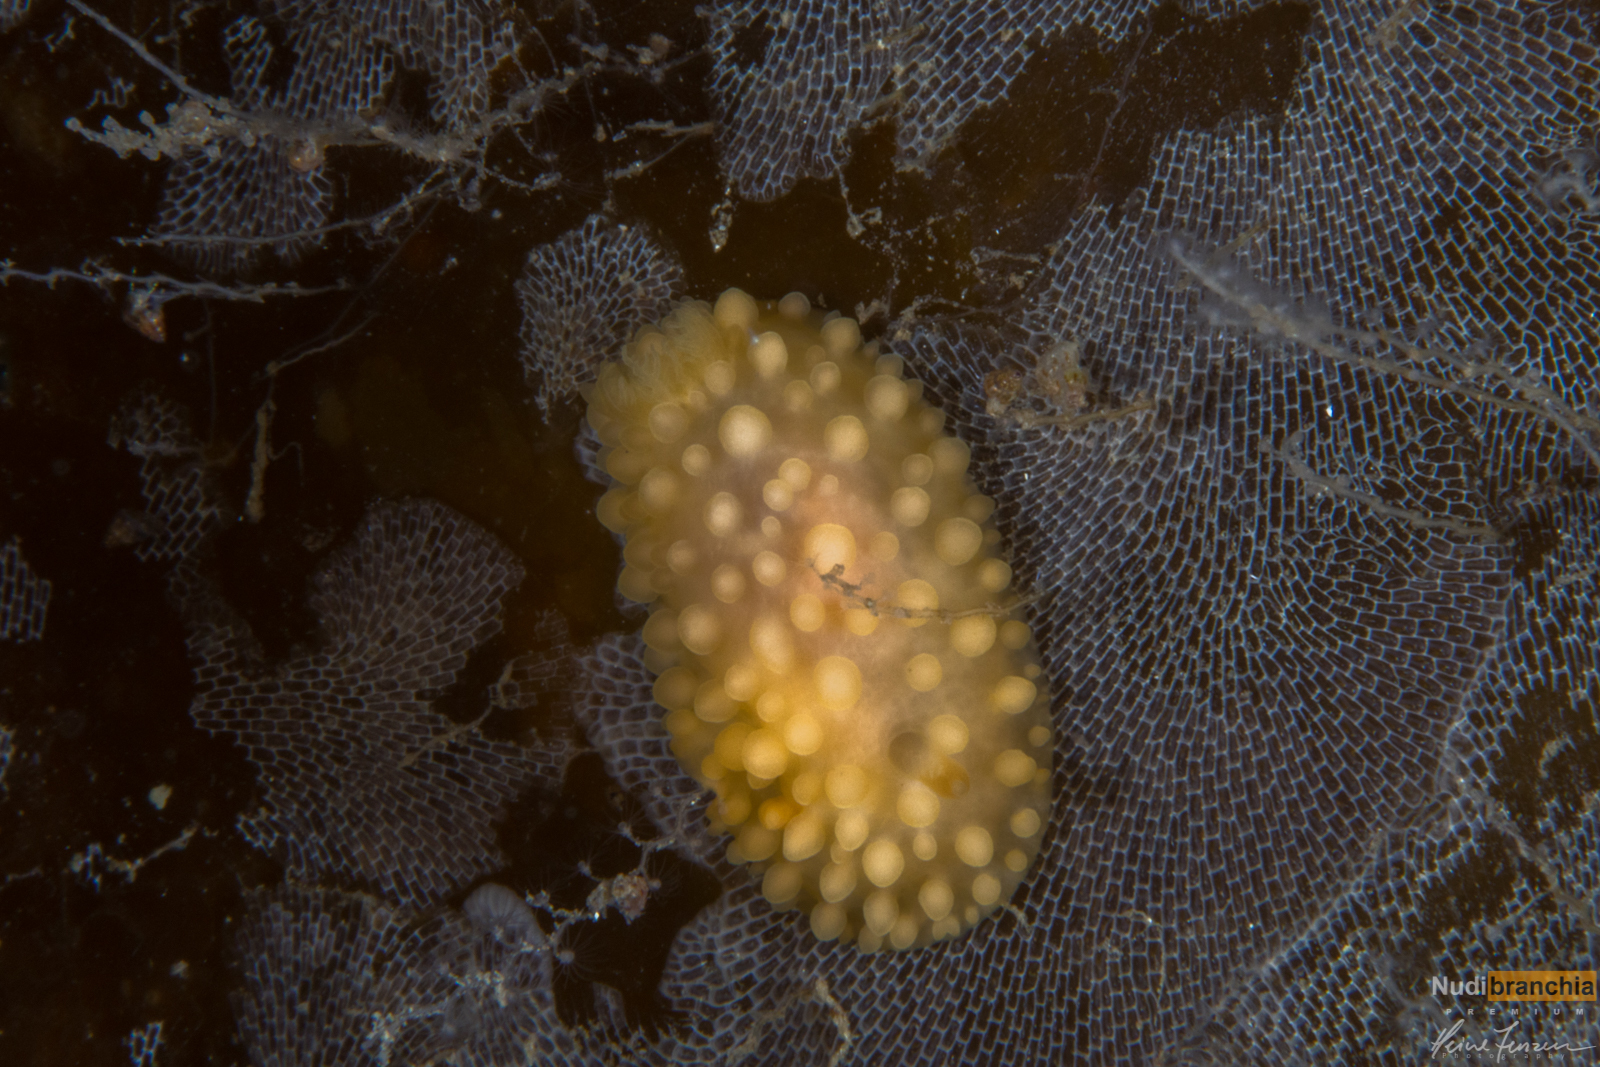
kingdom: Animalia
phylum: Mollusca
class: Gastropoda
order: Nudibranchia
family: Onchidorididae
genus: Adalaria
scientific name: Adalaria loveni
